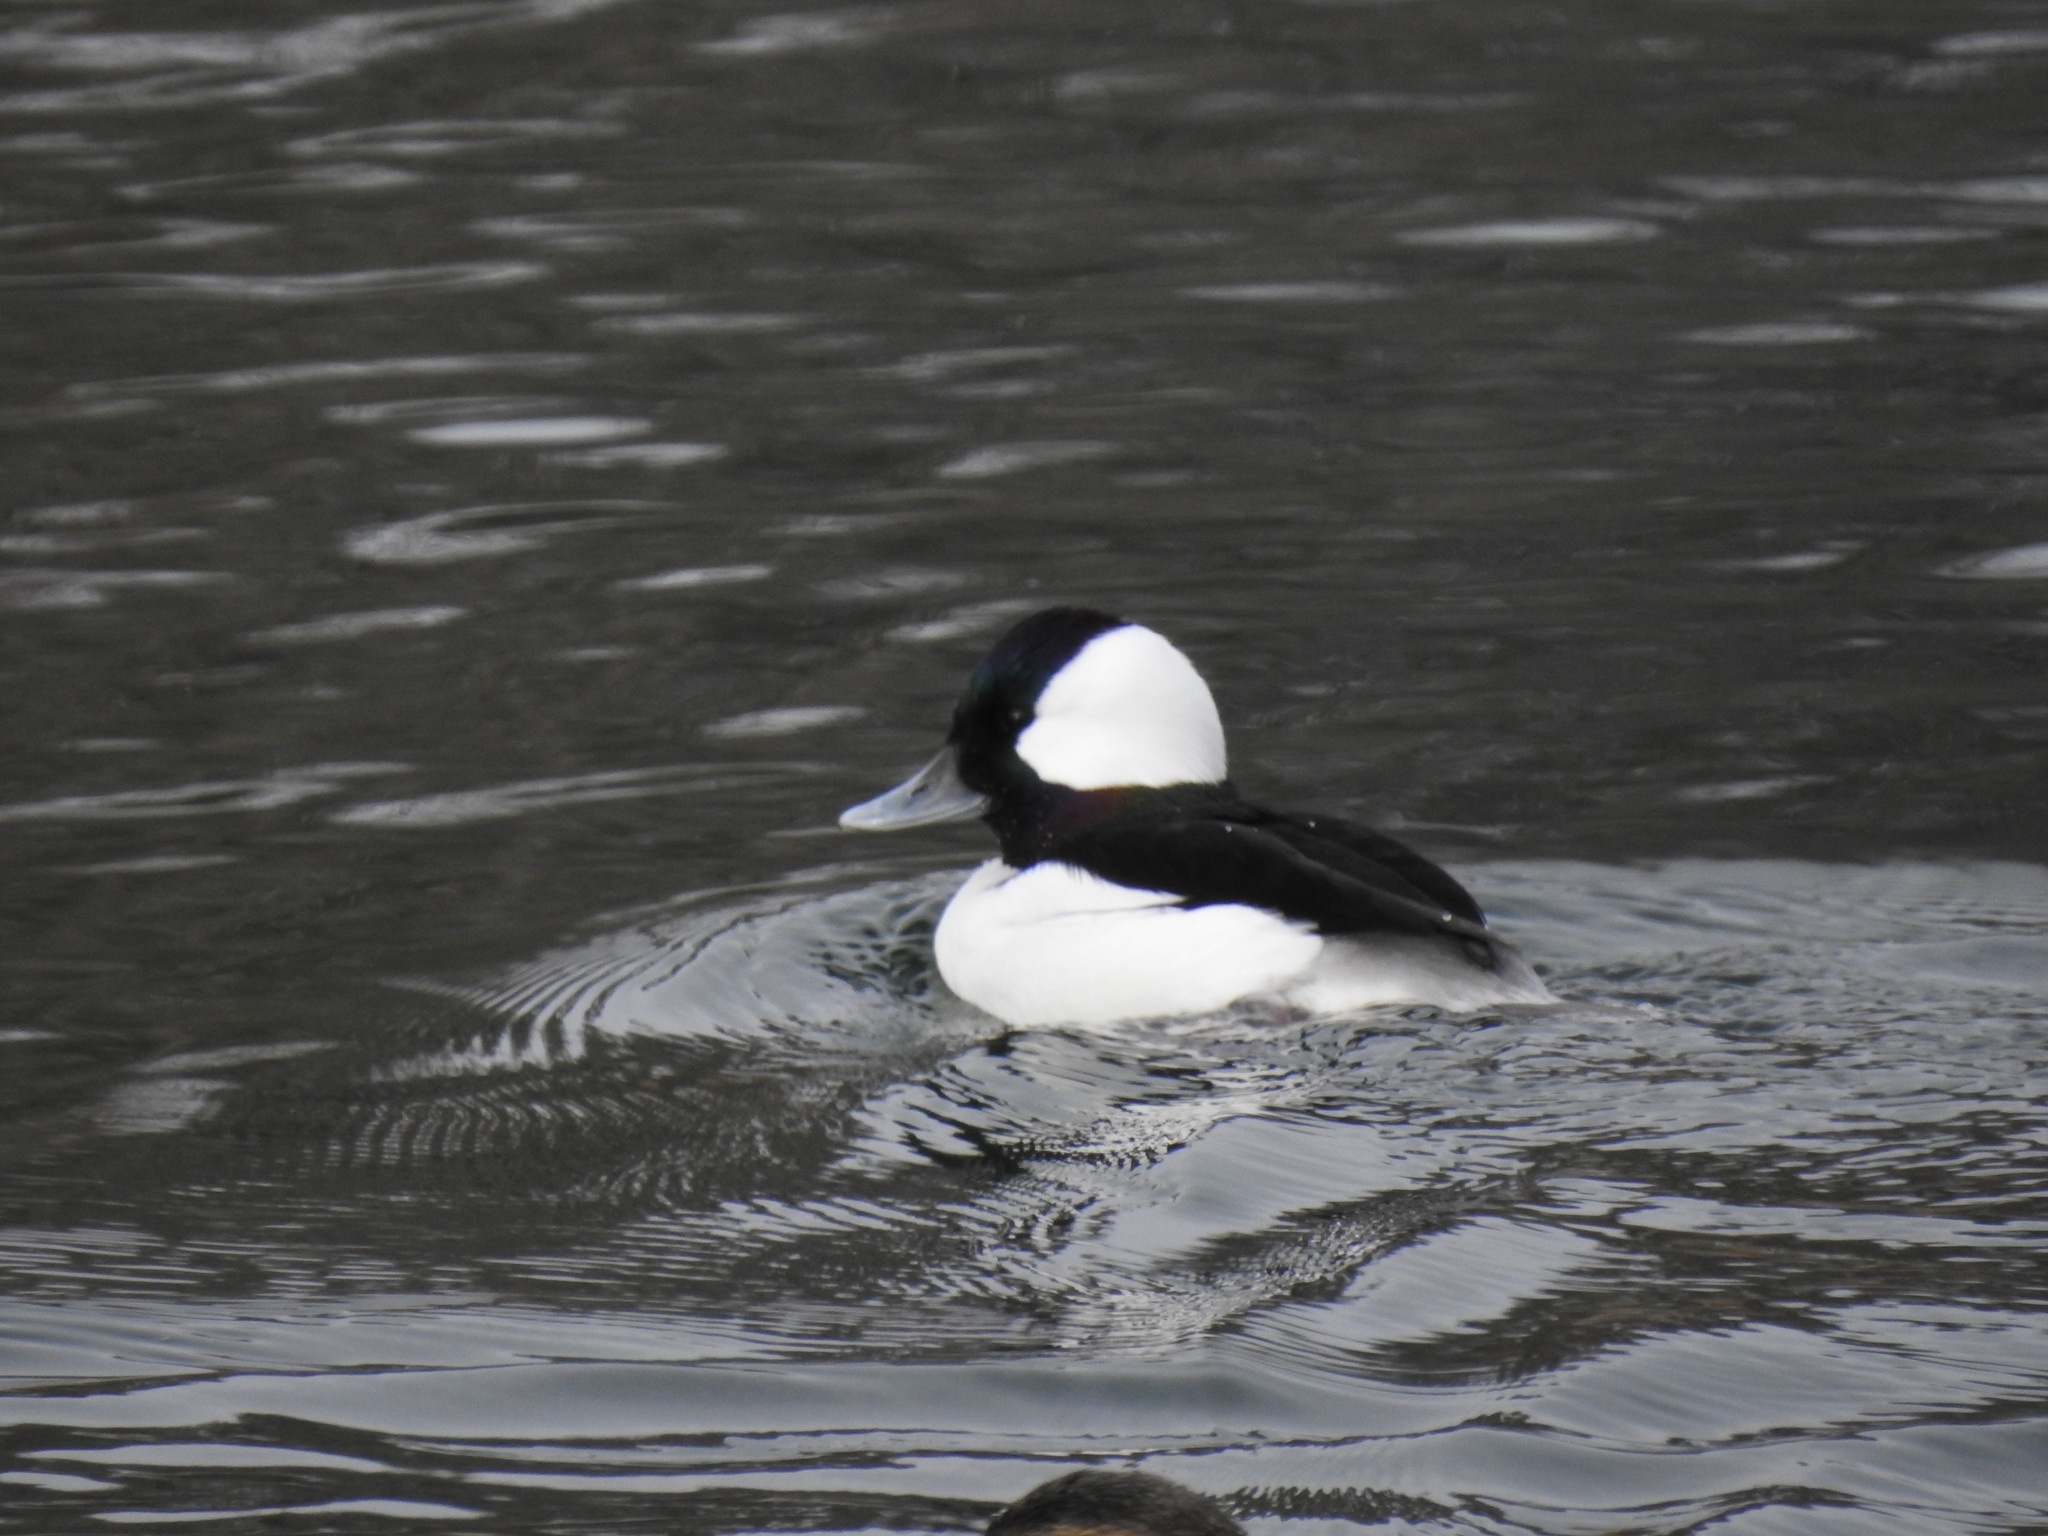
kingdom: Animalia
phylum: Chordata
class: Aves
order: Anseriformes
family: Anatidae
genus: Bucephala
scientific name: Bucephala albeola
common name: Bufflehead
